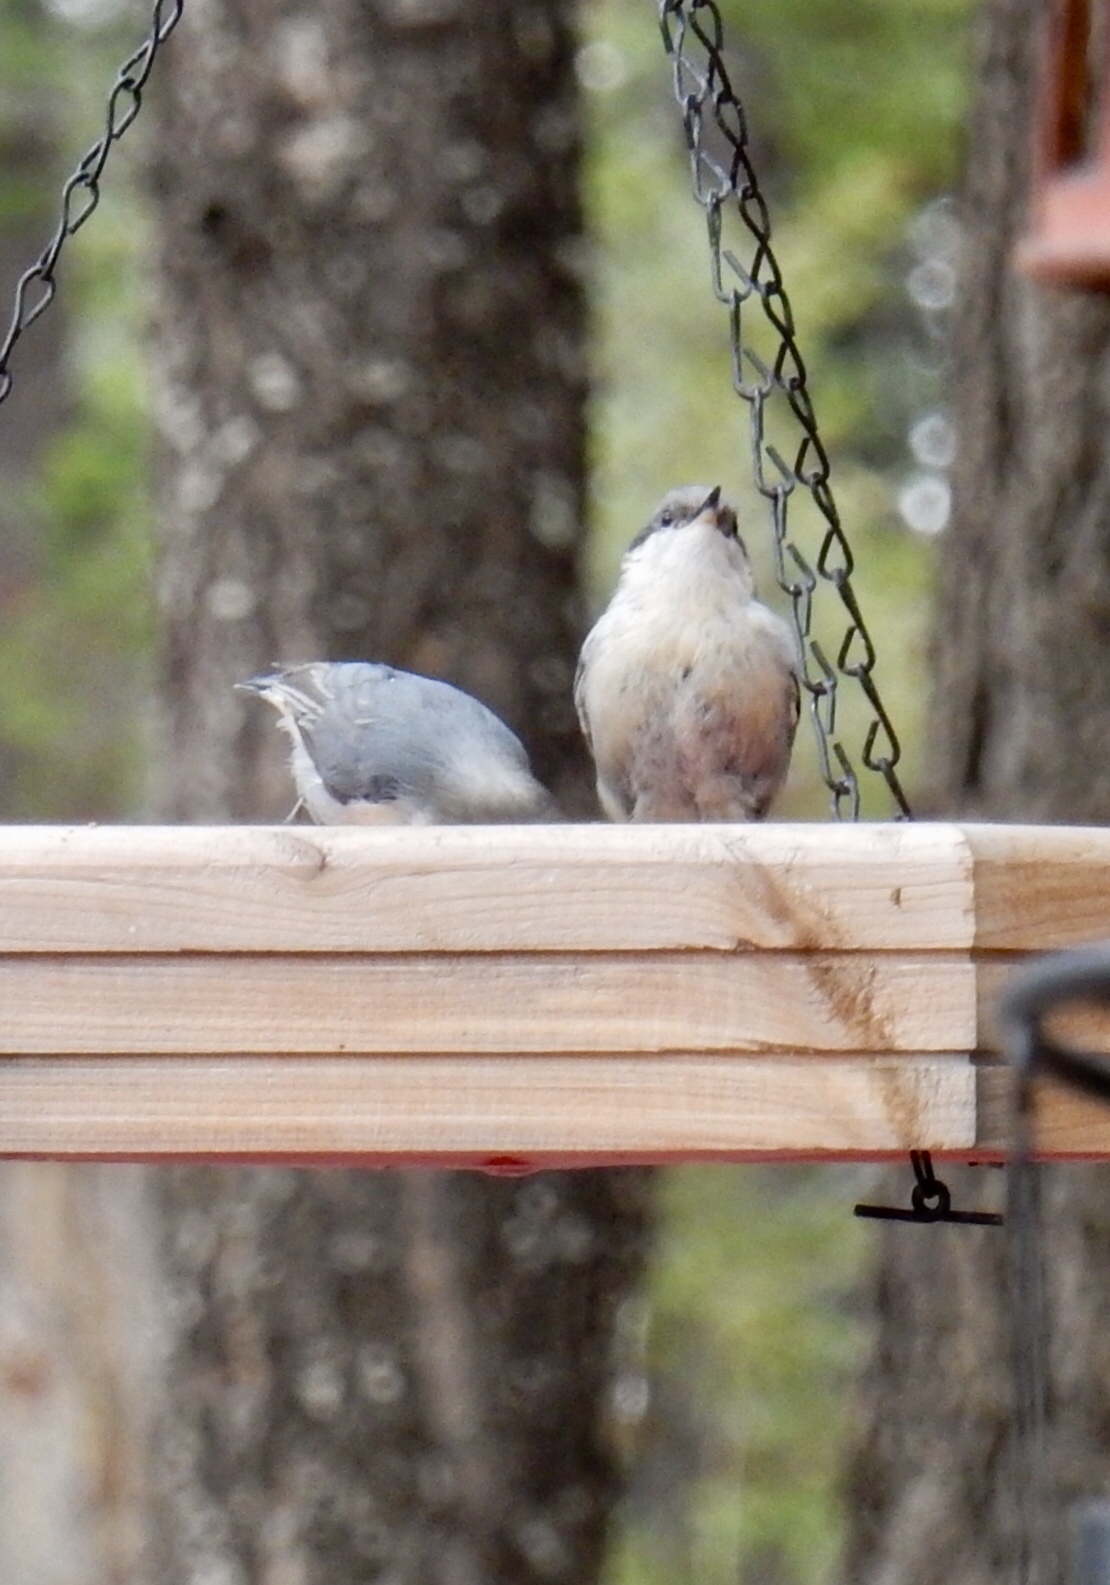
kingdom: Animalia
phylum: Chordata
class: Aves
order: Passeriformes
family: Sittidae
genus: Sitta
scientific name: Sitta pygmaea
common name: Pygmy nuthatch
